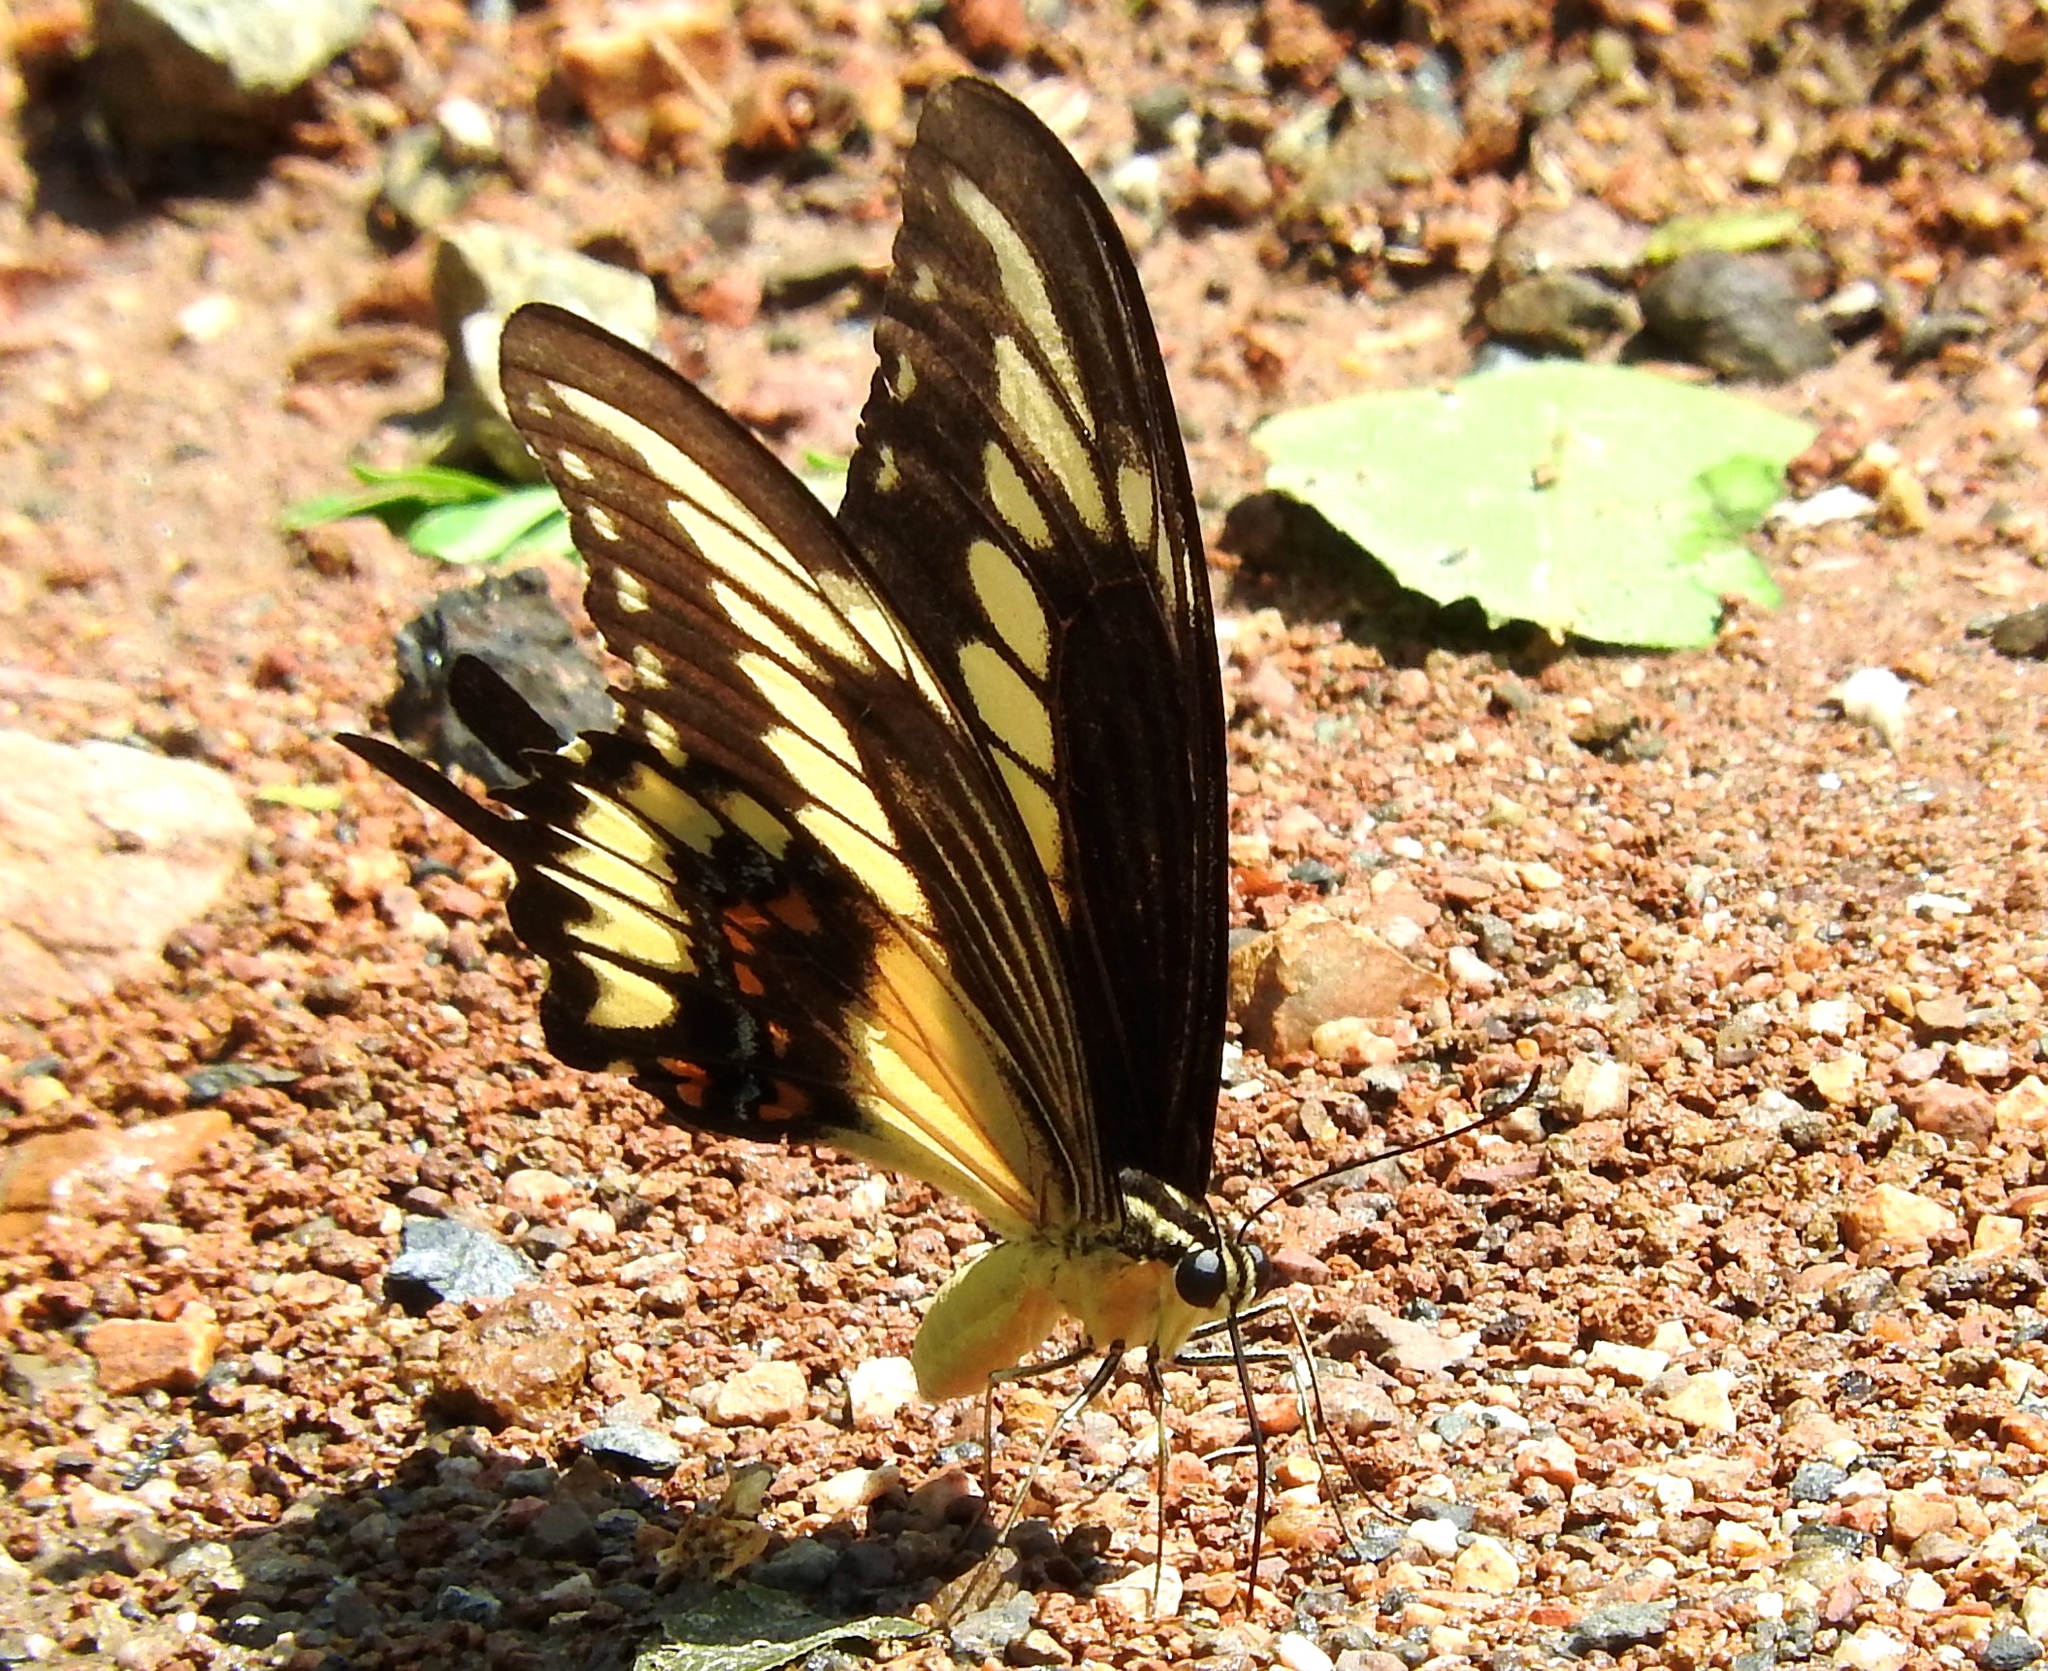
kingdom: Animalia
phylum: Arthropoda
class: Insecta
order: Lepidoptera
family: Papilionidae
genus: Heraclides
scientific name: Heraclides pallas
